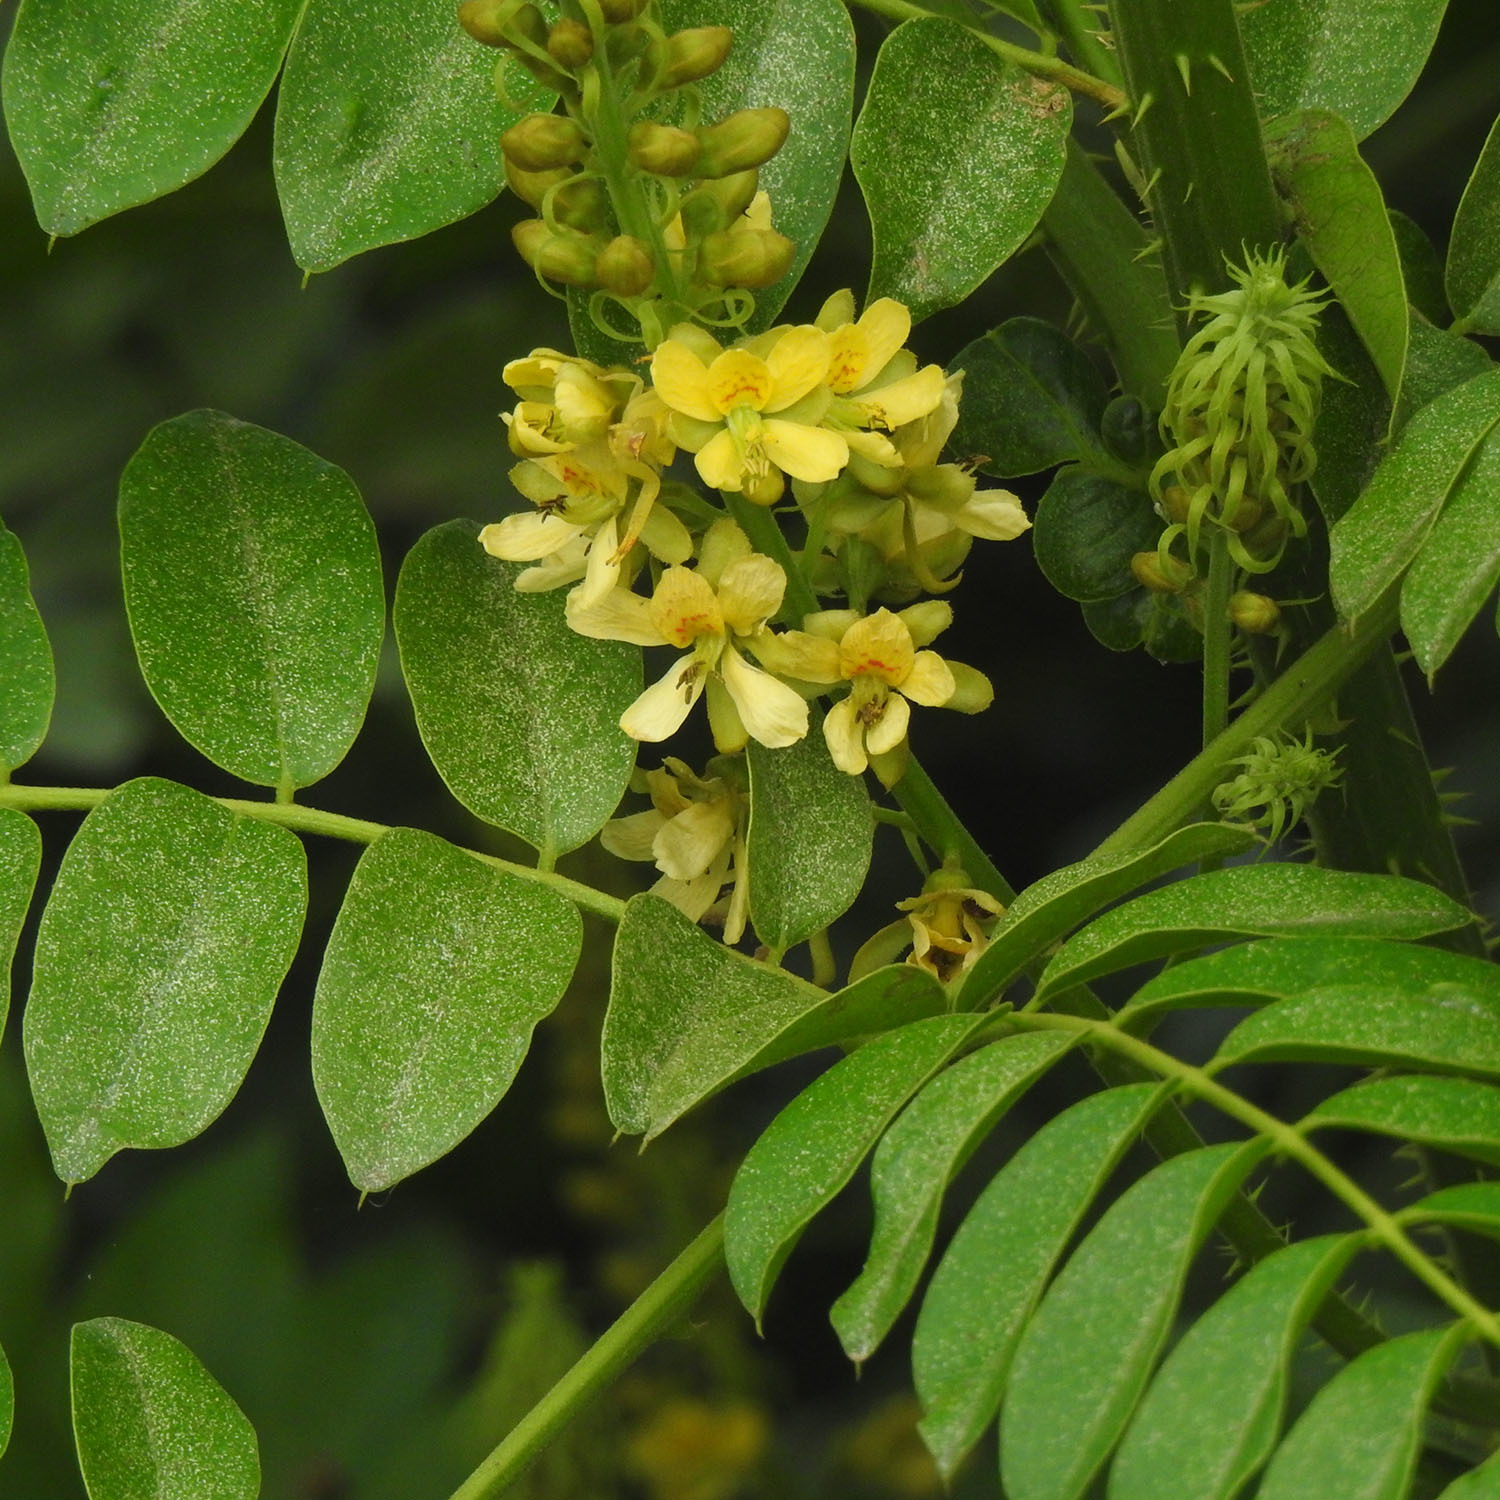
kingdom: Plantae
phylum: Tracheophyta
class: Magnoliopsida
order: Fabales
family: Fabaceae
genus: Guilandina
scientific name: Guilandina bonduc
